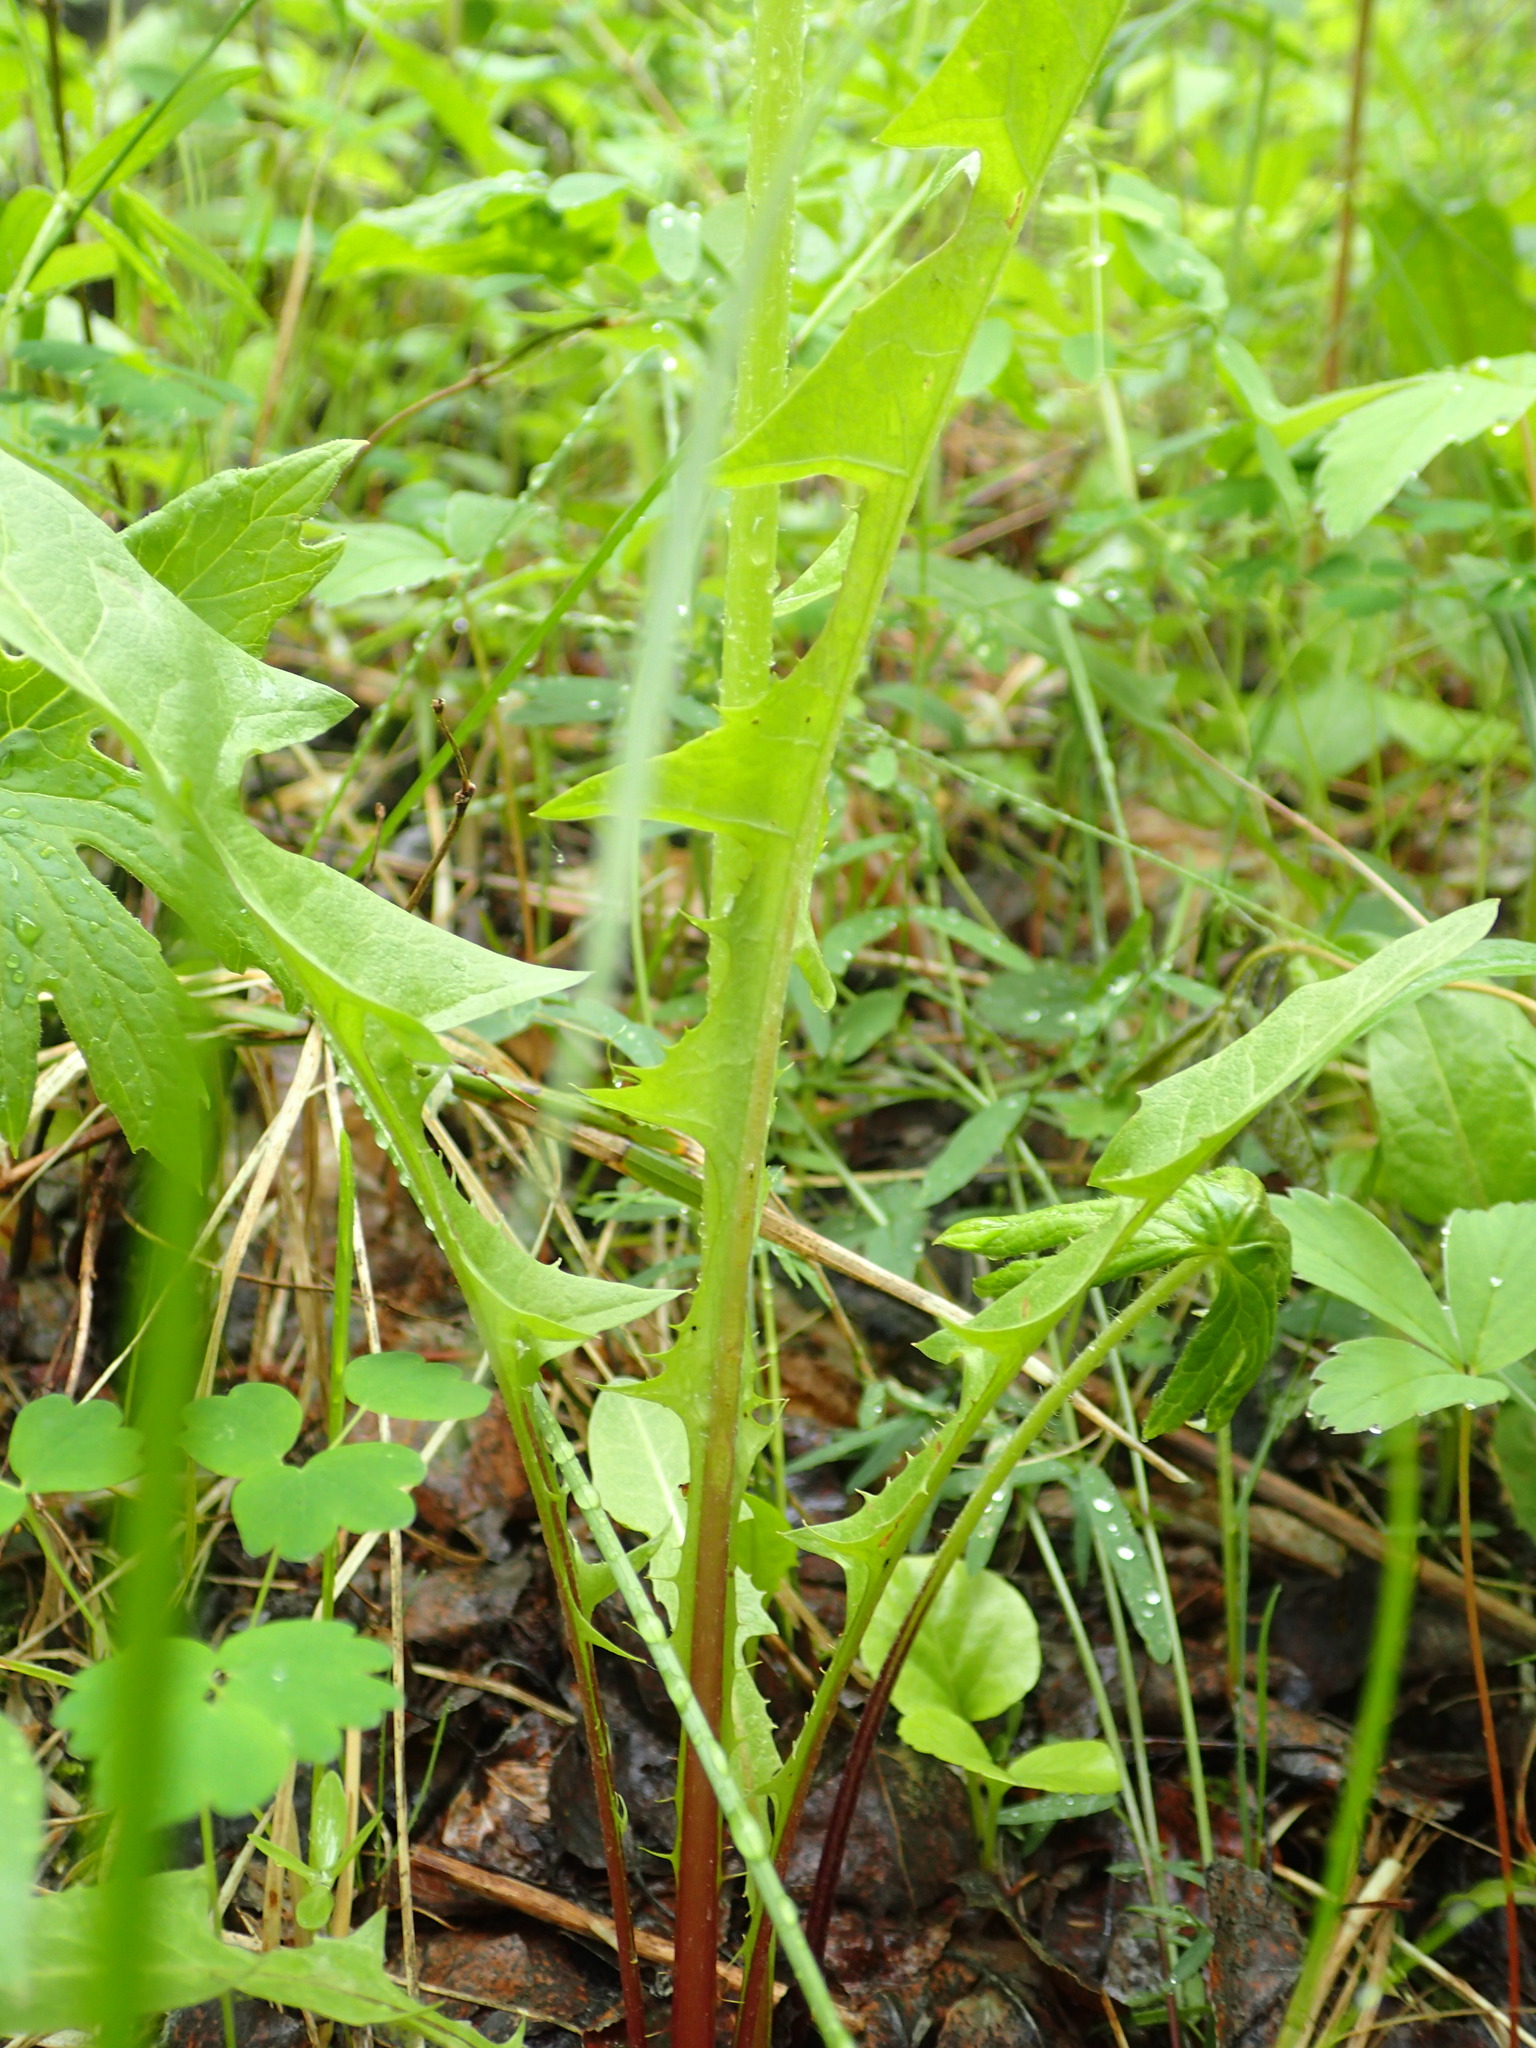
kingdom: Plantae
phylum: Tracheophyta
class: Magnoliopsida
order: Asterales
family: Asteraceae
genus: Taraxacum
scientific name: Taraxacum officinale
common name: Common dandelion
